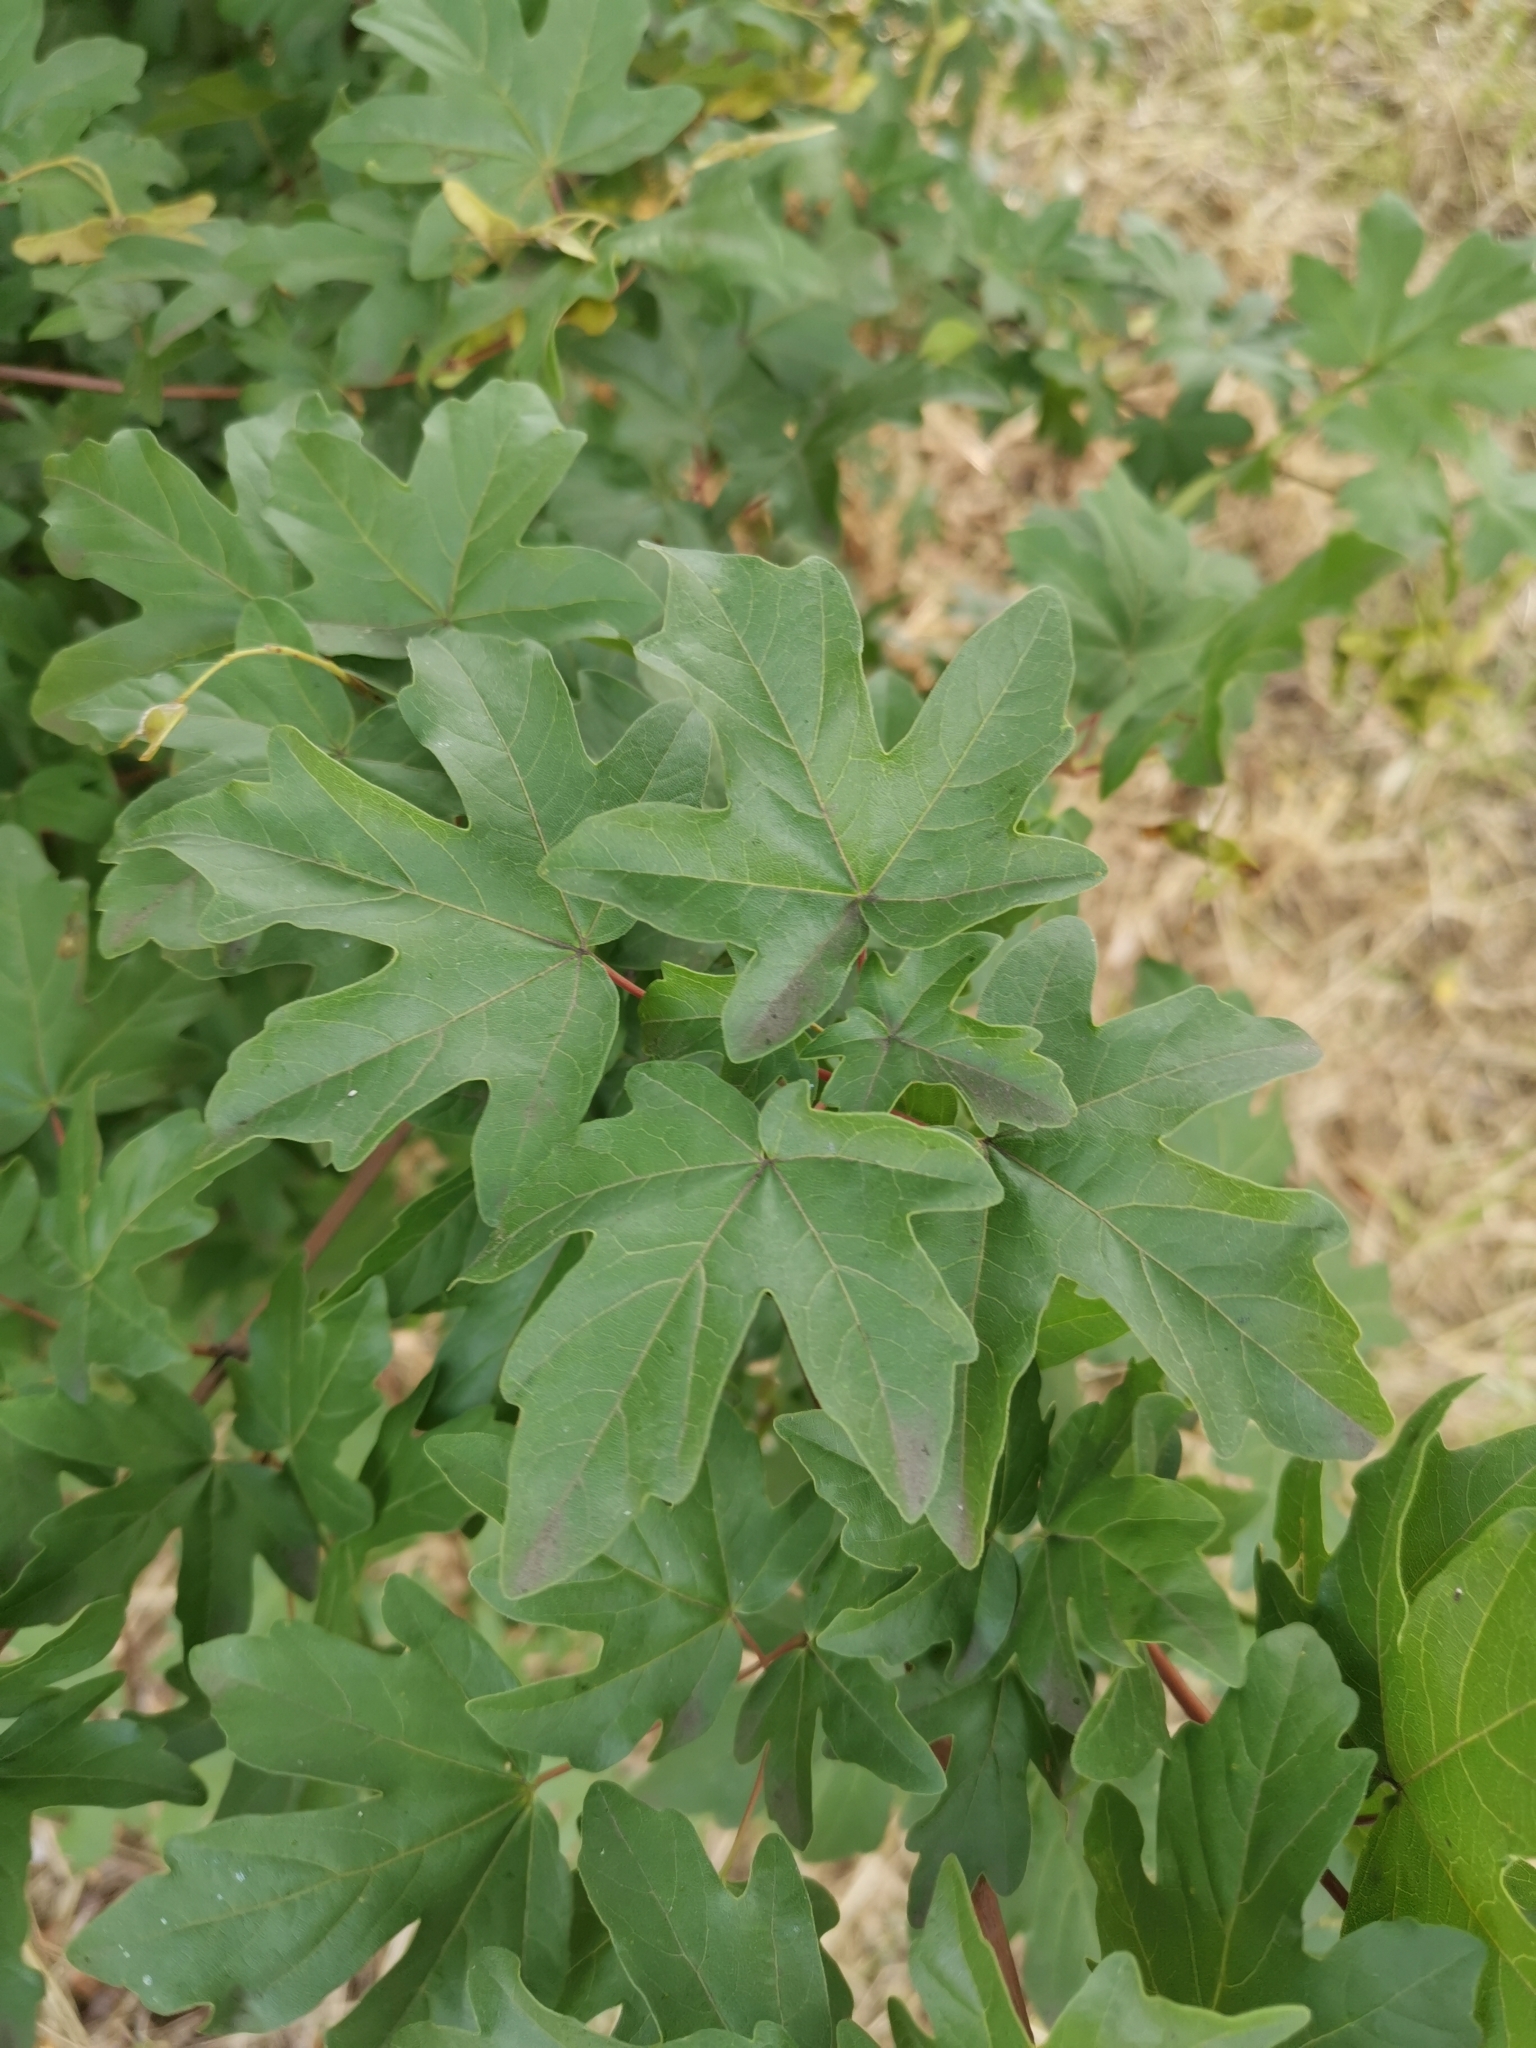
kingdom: Plantae
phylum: Tracheophyta
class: Magnoliopsida
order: Sapindales
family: Sapindaceae
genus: Acer
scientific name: Acer campestre
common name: Field maple
